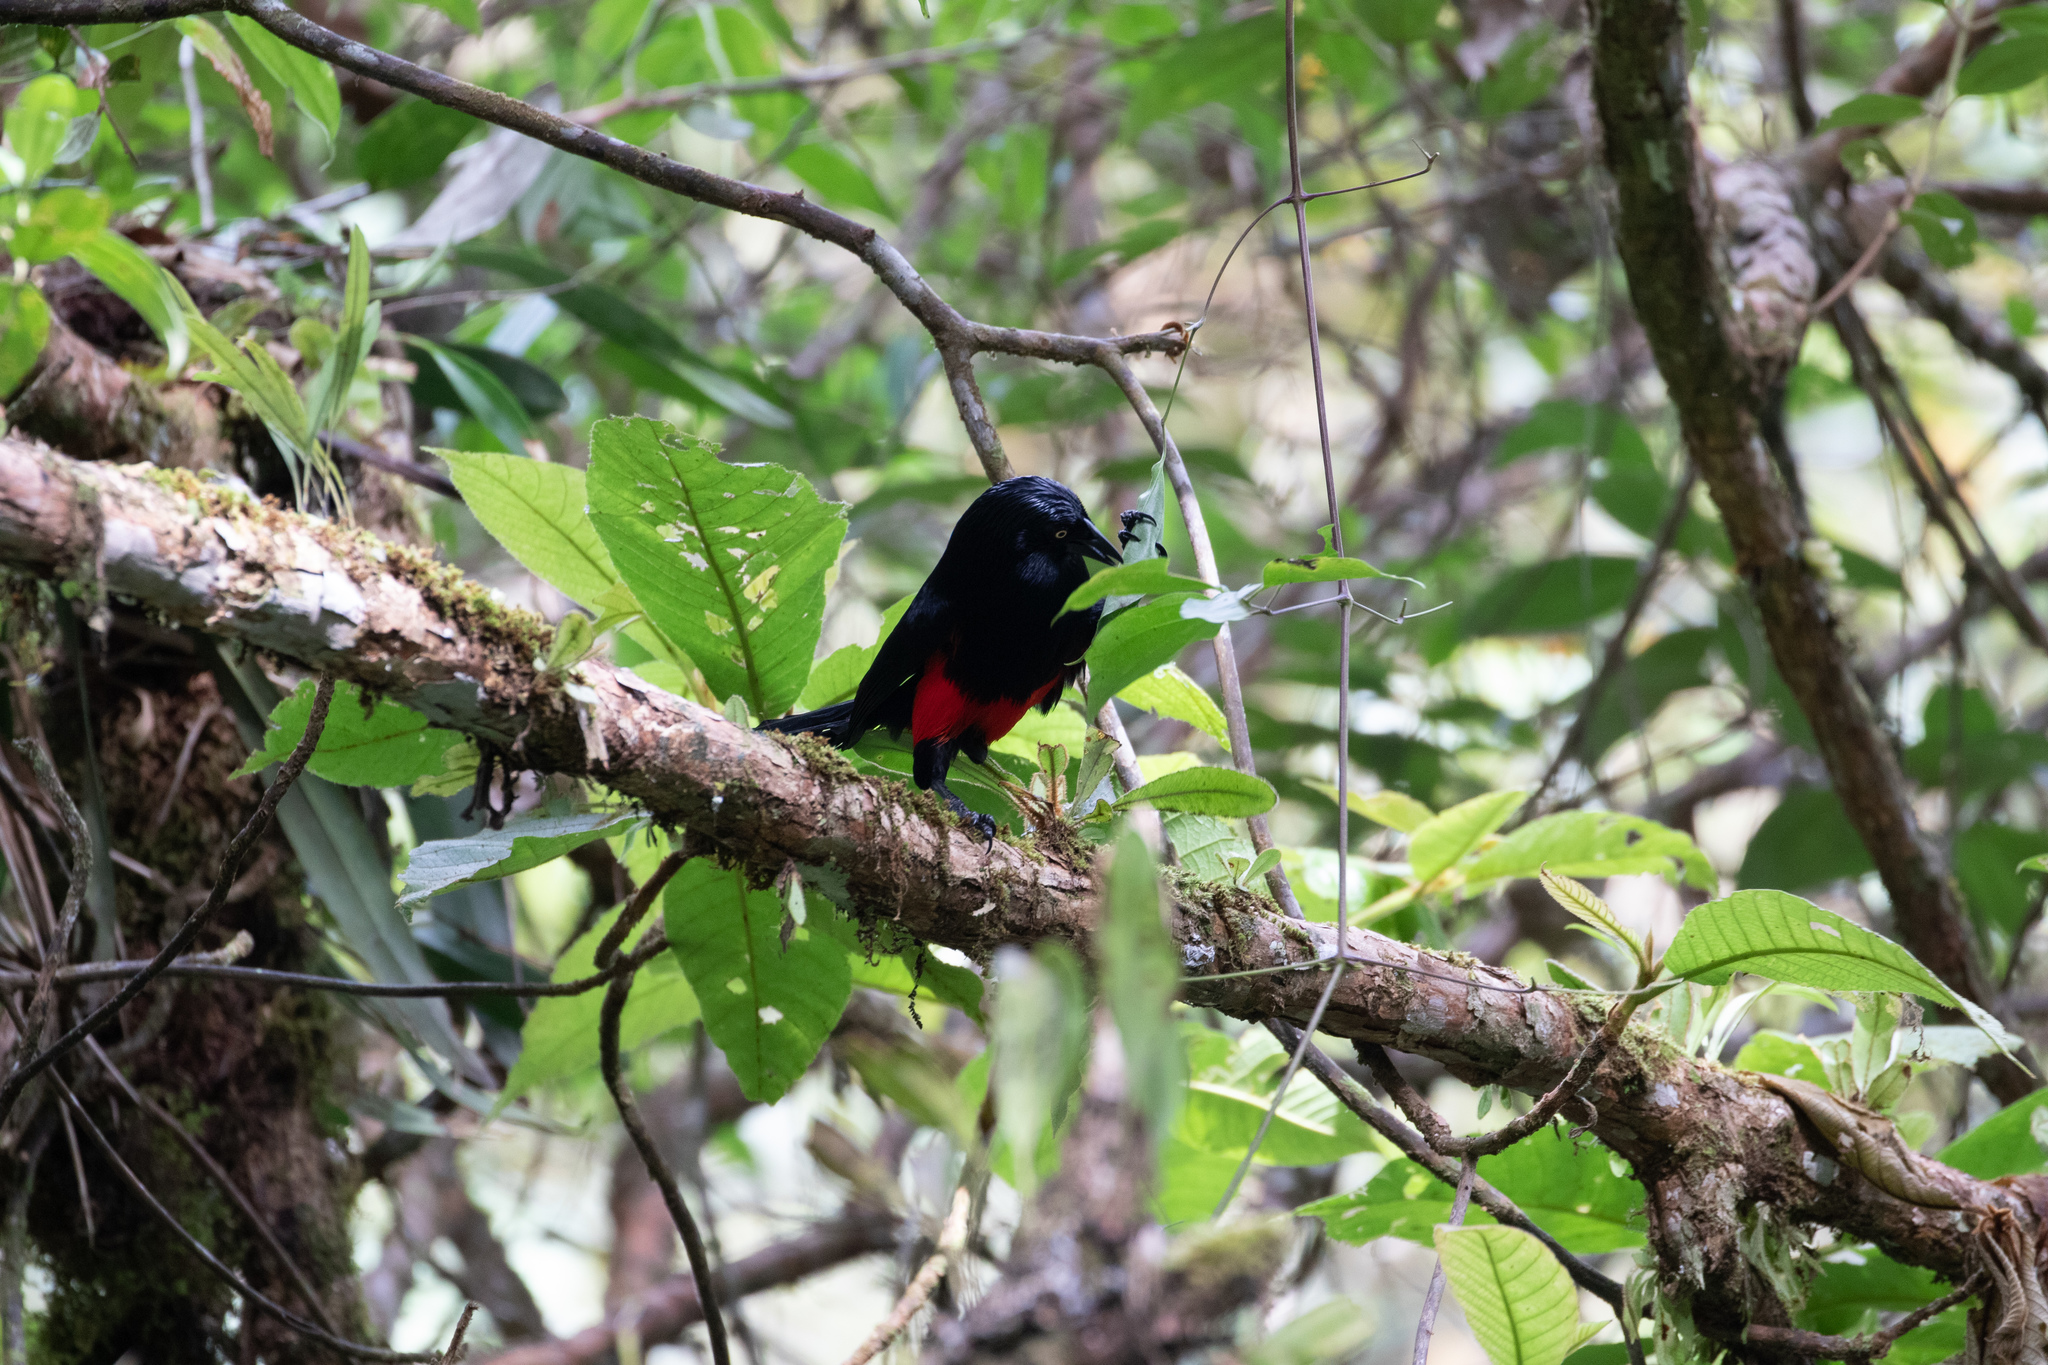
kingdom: Animalia
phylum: Chordata
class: Aves
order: Passeriformes
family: Icteridae
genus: Hypopyrrhus
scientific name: Hypopyrrhus pyrohypogaster
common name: Red-bellied grackle
